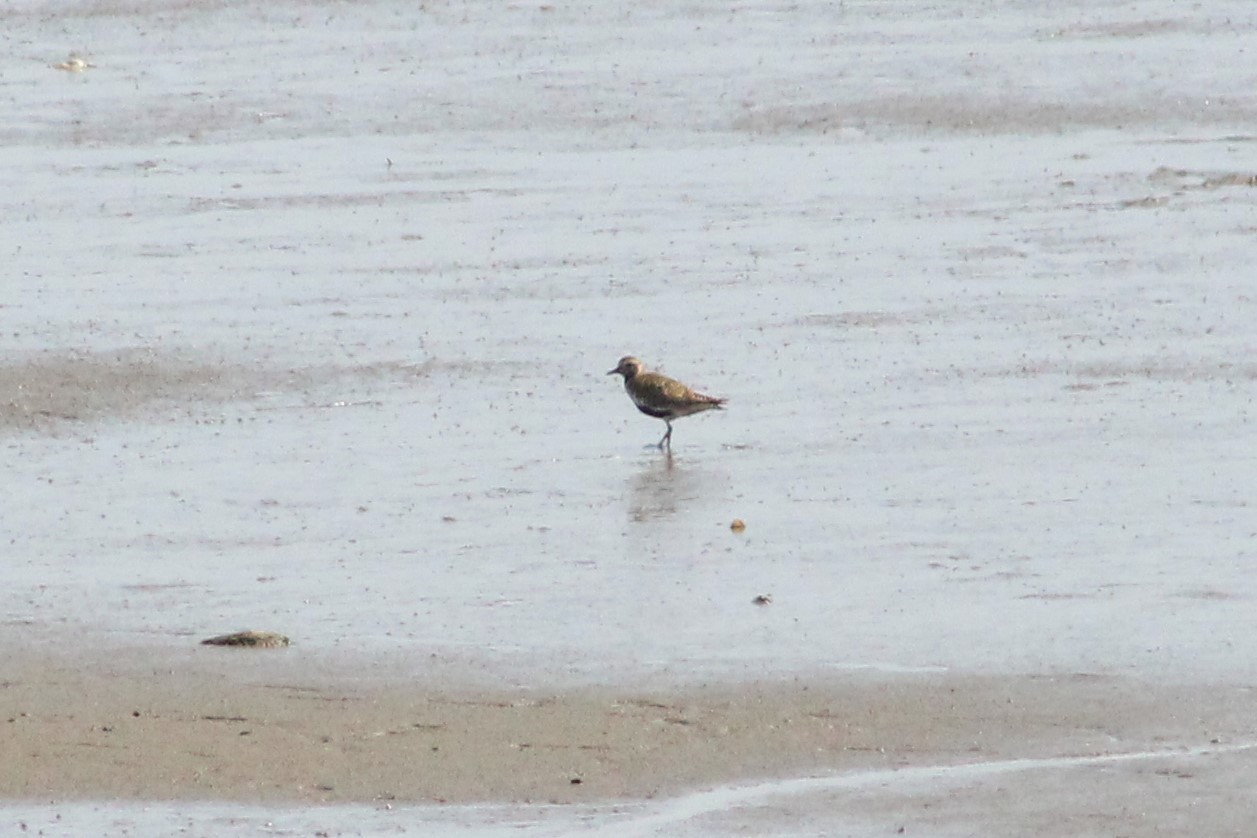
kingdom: Animalia
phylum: Chordata
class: Aves
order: Charadriiformes
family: Charadriidae
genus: Pluvialis
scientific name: Pluvialis apricaria
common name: European golden plover
